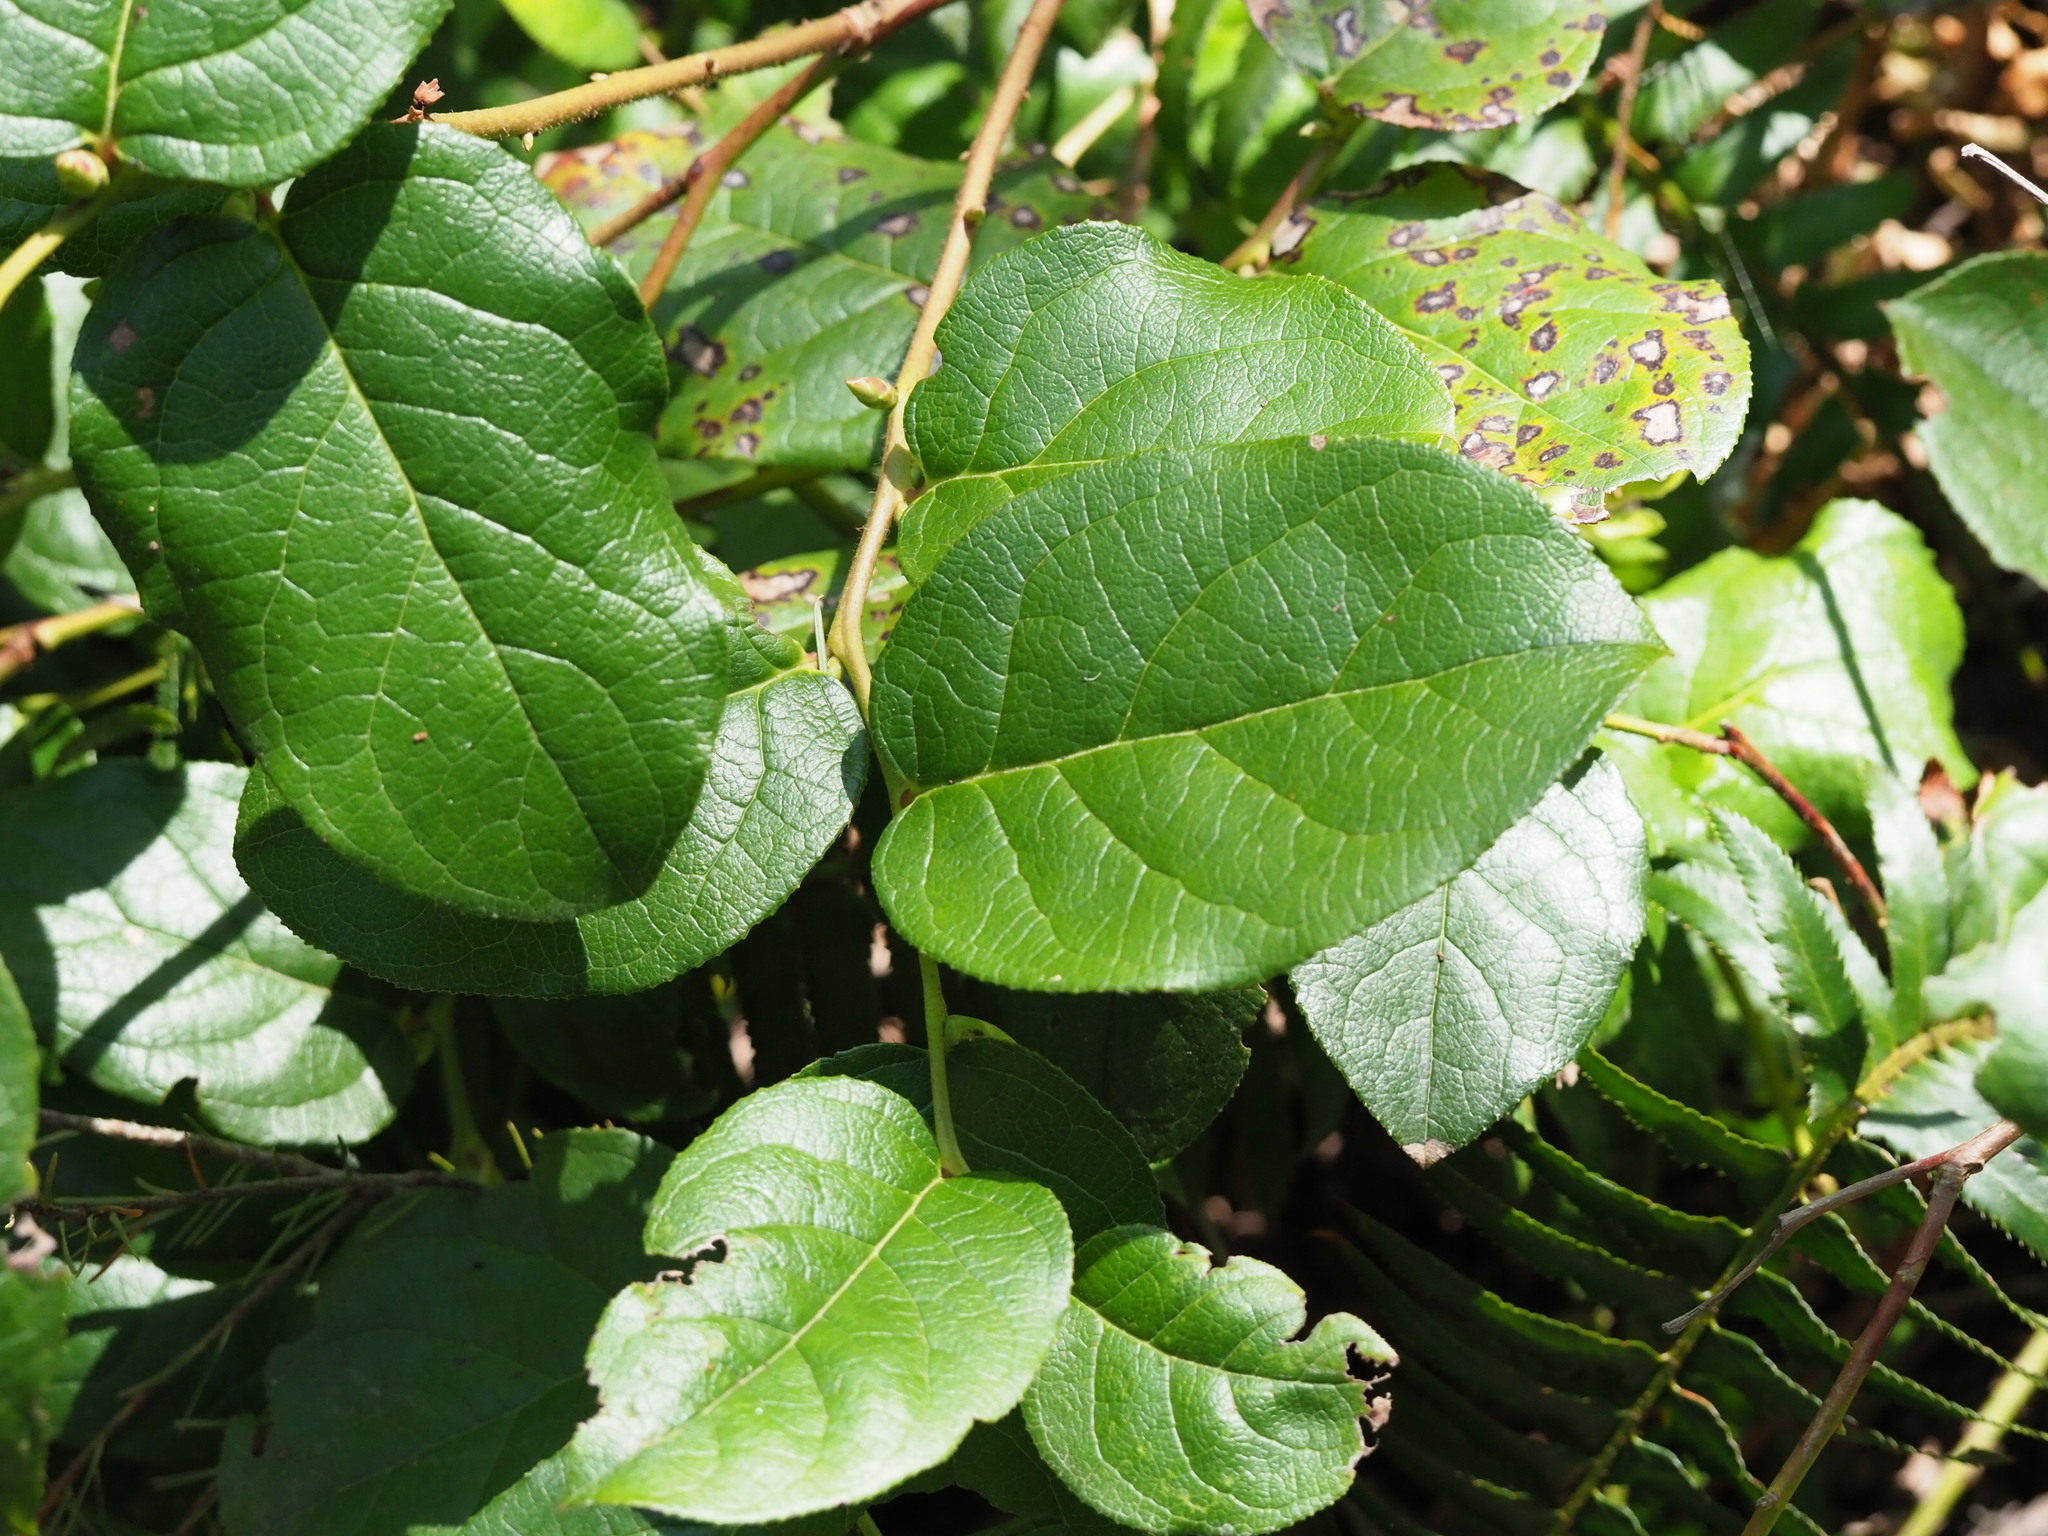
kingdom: Plantae
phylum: Tracheophyta
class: Magnoliopsida
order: Ericales
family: Ericaceae
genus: Gaultheria
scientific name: Gaultheria shallon
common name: Shallon
